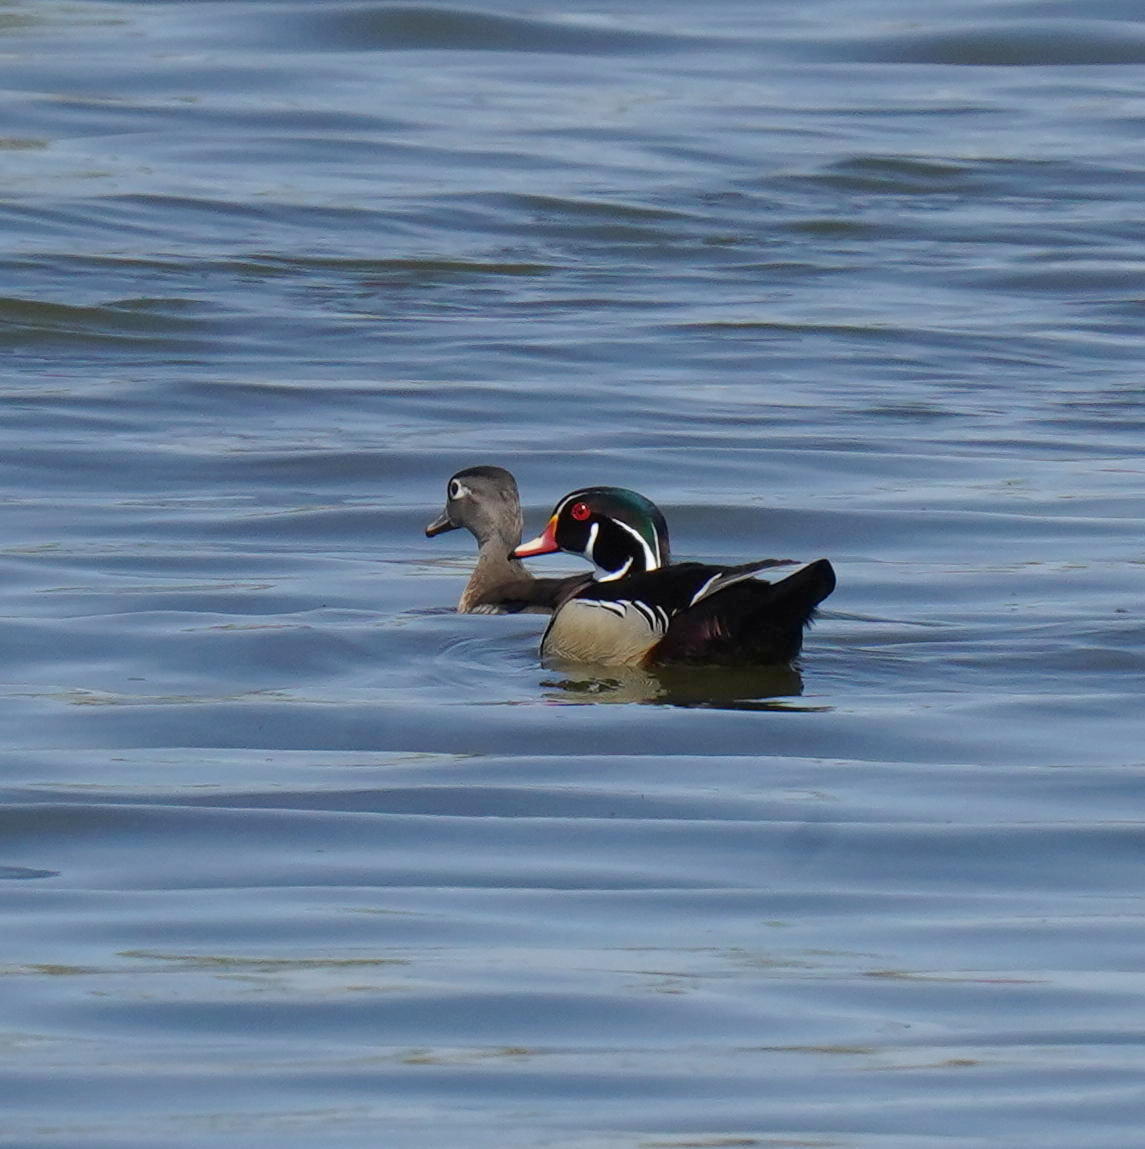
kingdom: Animalia
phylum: Chordata
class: Aves
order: Anseriformes
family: Anatidae
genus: Aix
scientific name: Aix sponsa
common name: Wood duck
